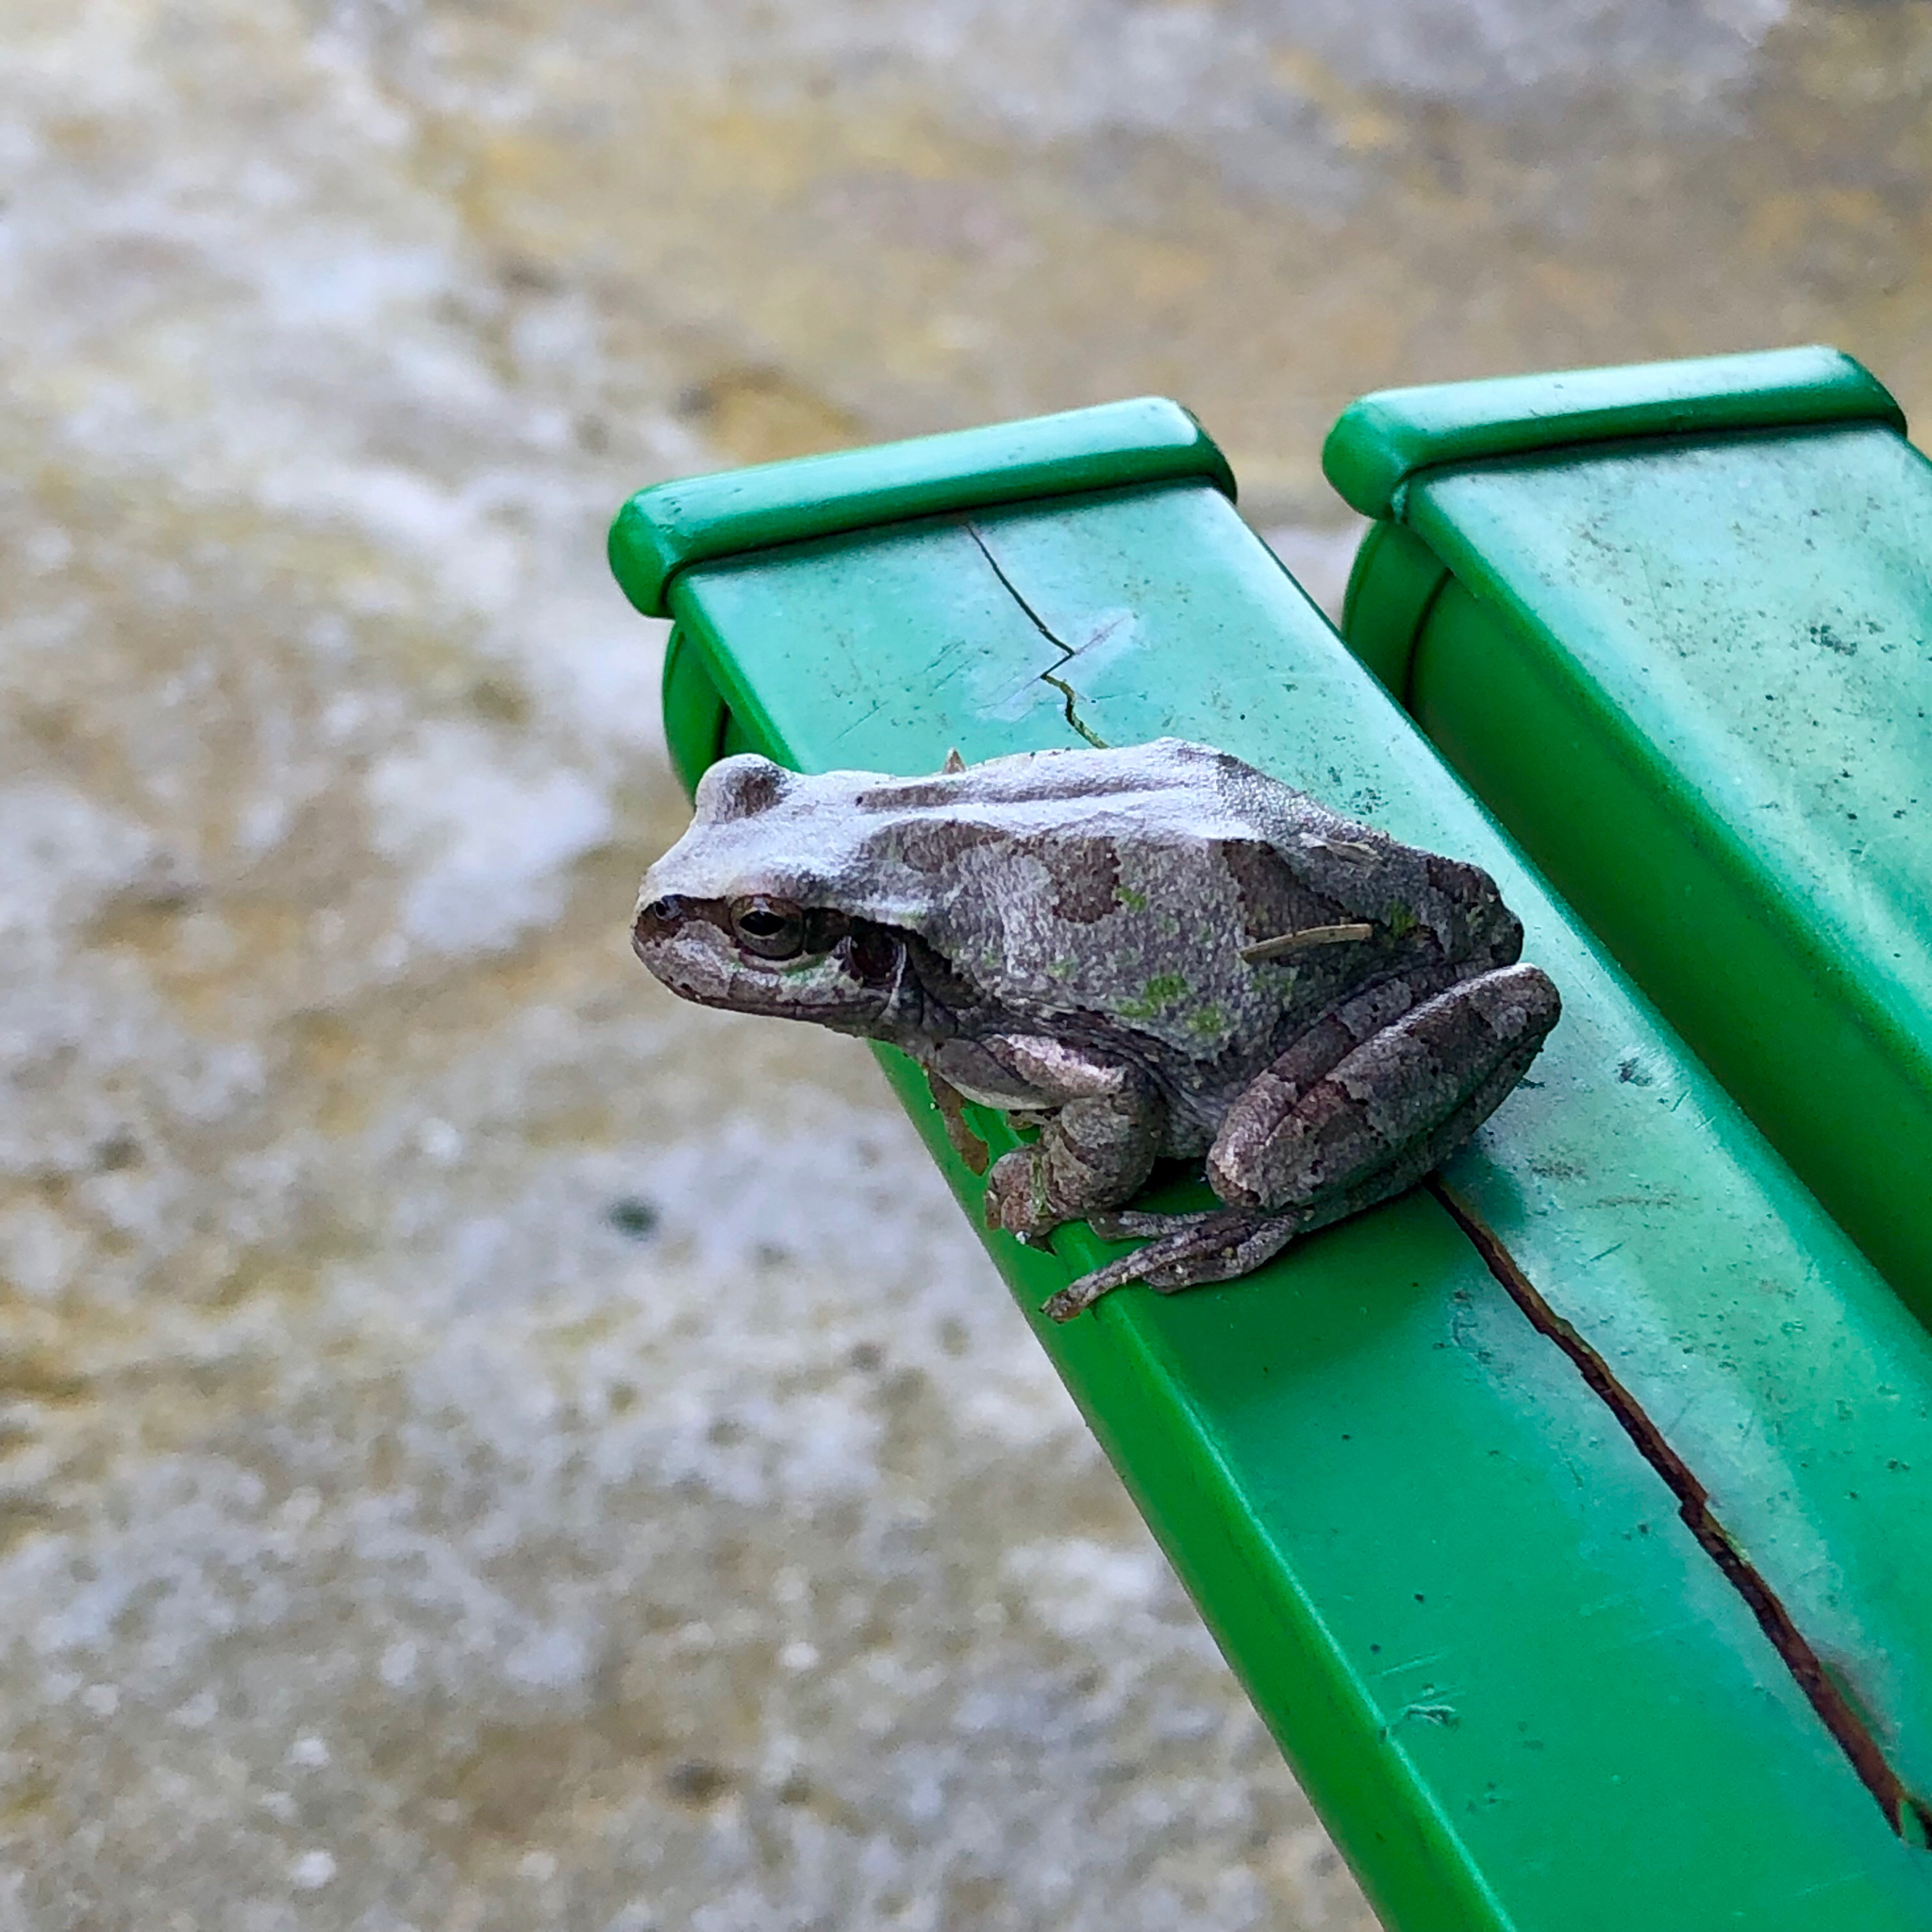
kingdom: Animalia
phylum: Chordata
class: Amphibia
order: Anura
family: Hylidae
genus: Dryophytes
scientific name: Dryophytes japonicus
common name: Japanese treefrog
